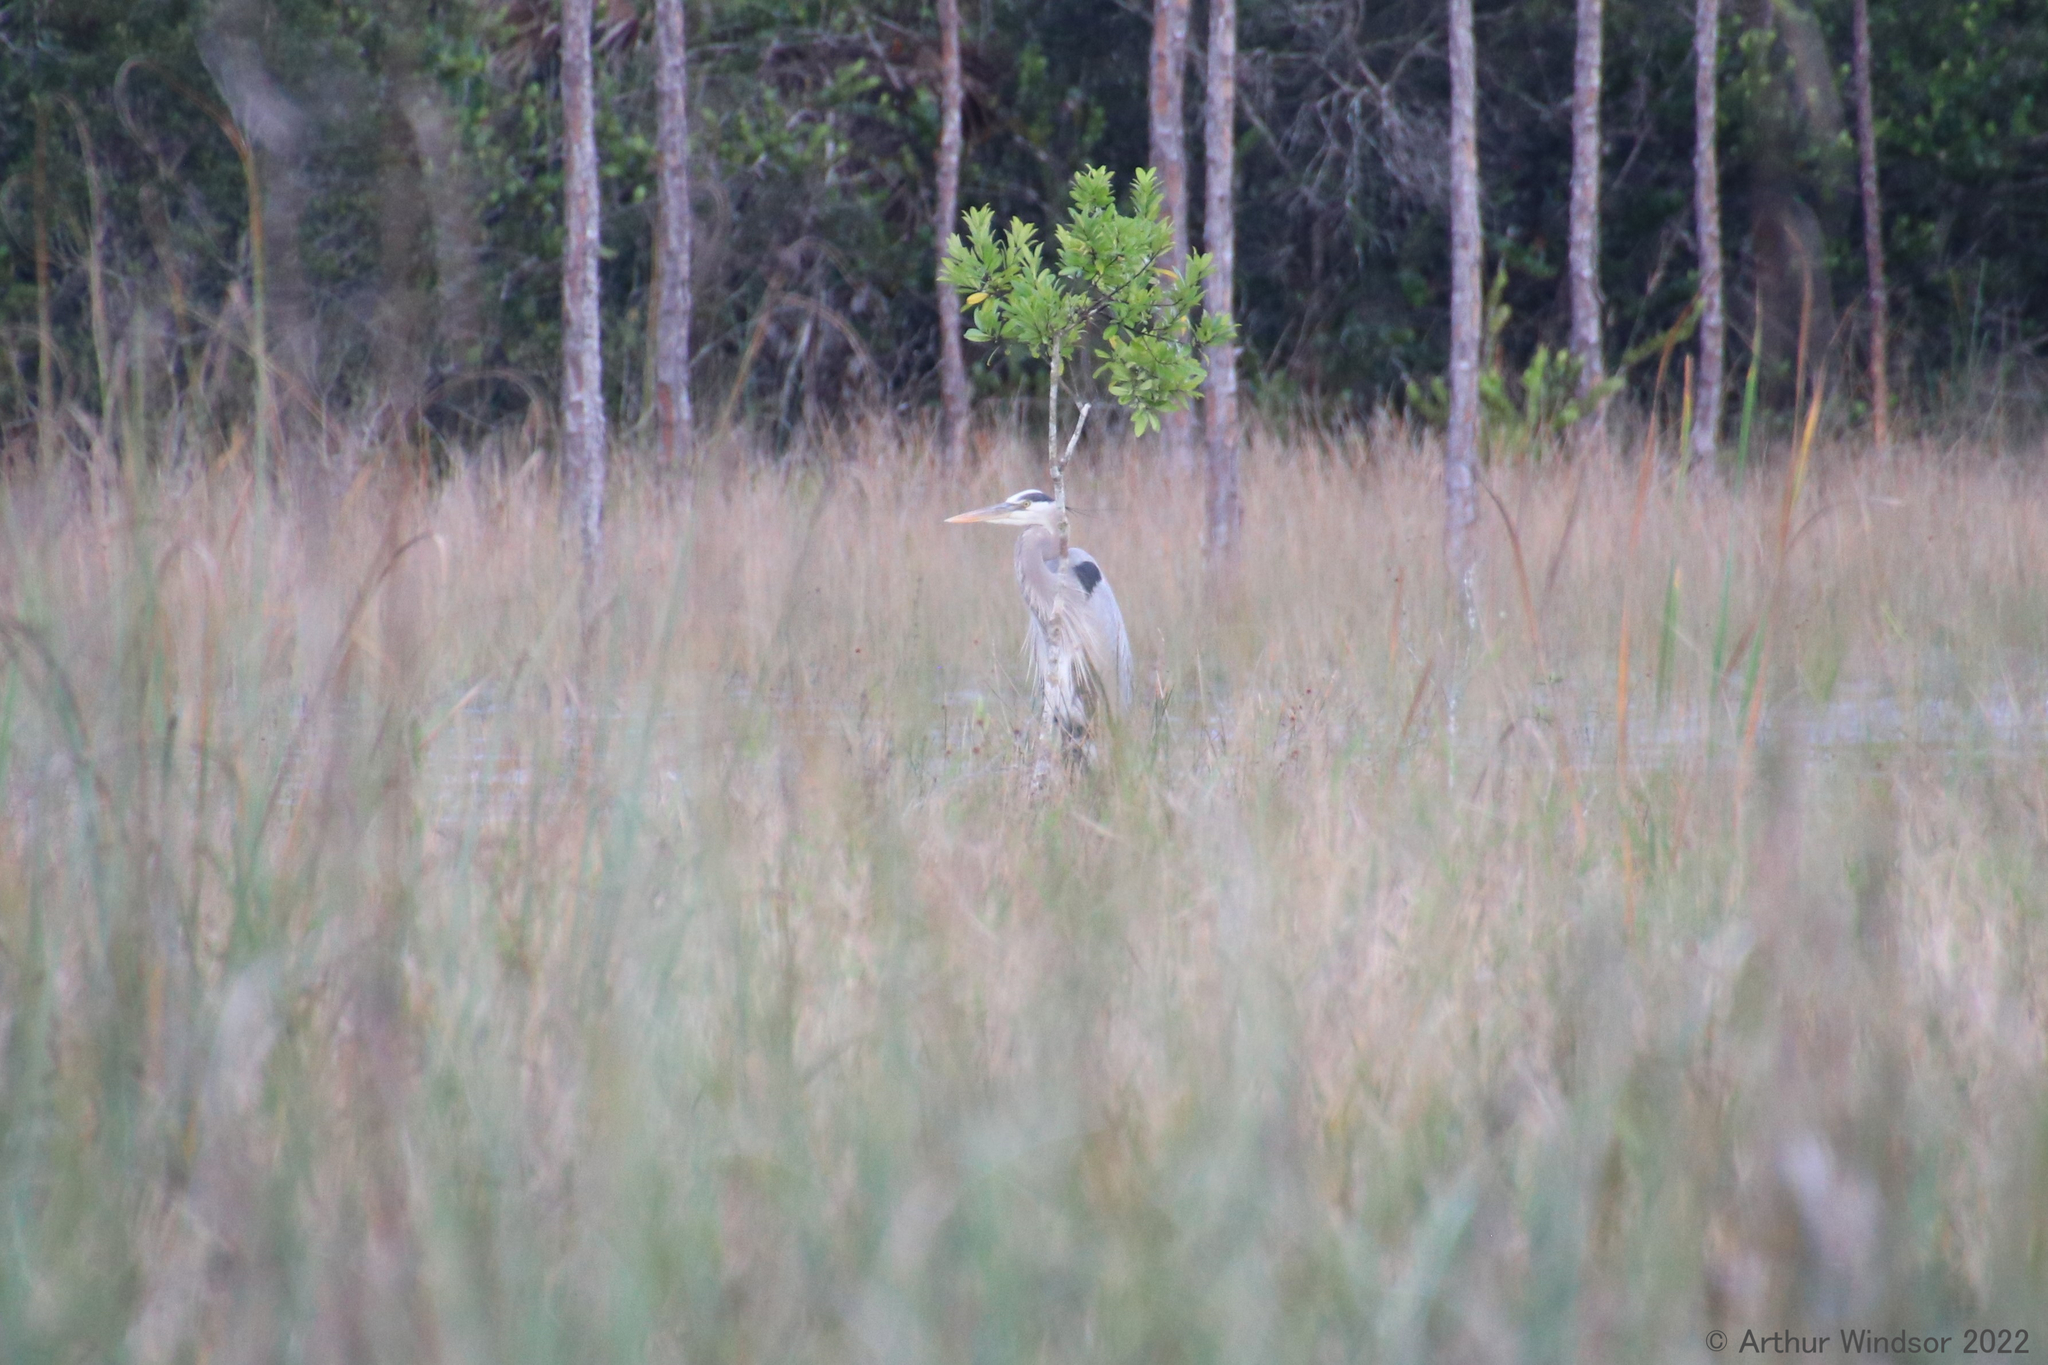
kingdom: Animalia
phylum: Chordata
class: Aves
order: Pelecaniformes
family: Ardeidae
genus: Ardea
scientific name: Ardea herodias
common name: Great blue heron
